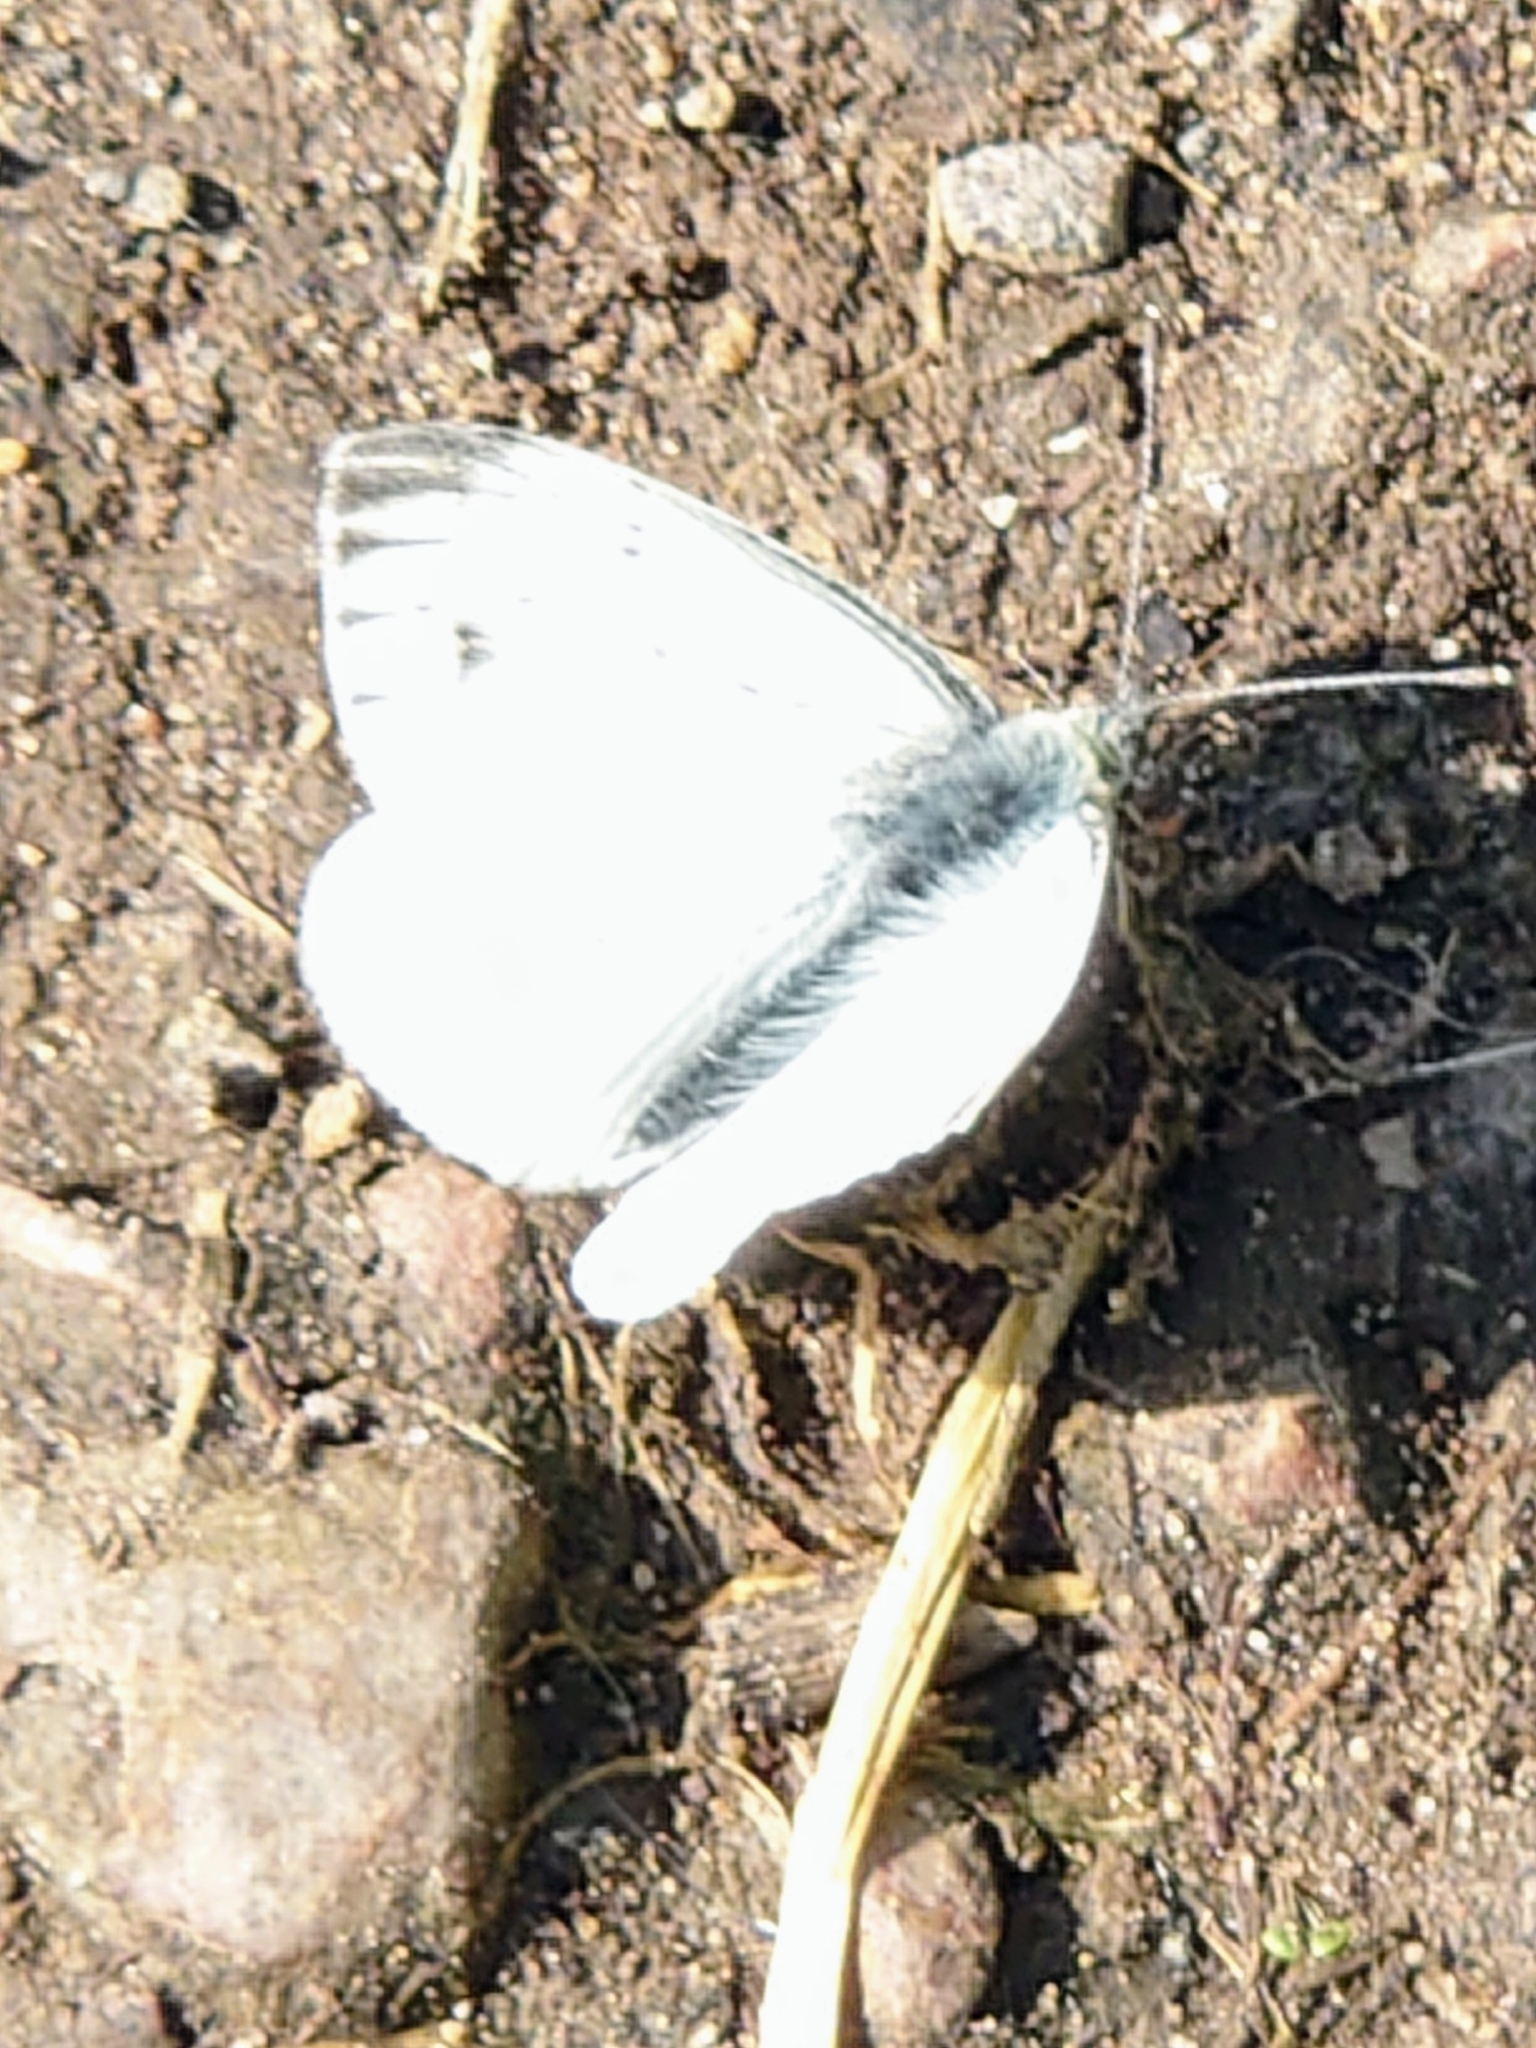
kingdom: Animalia
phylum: Arthropoda
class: Insecta
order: Lepidoptera
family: Pieridae
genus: Pieris
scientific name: Pieris napi
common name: Green-veined white
